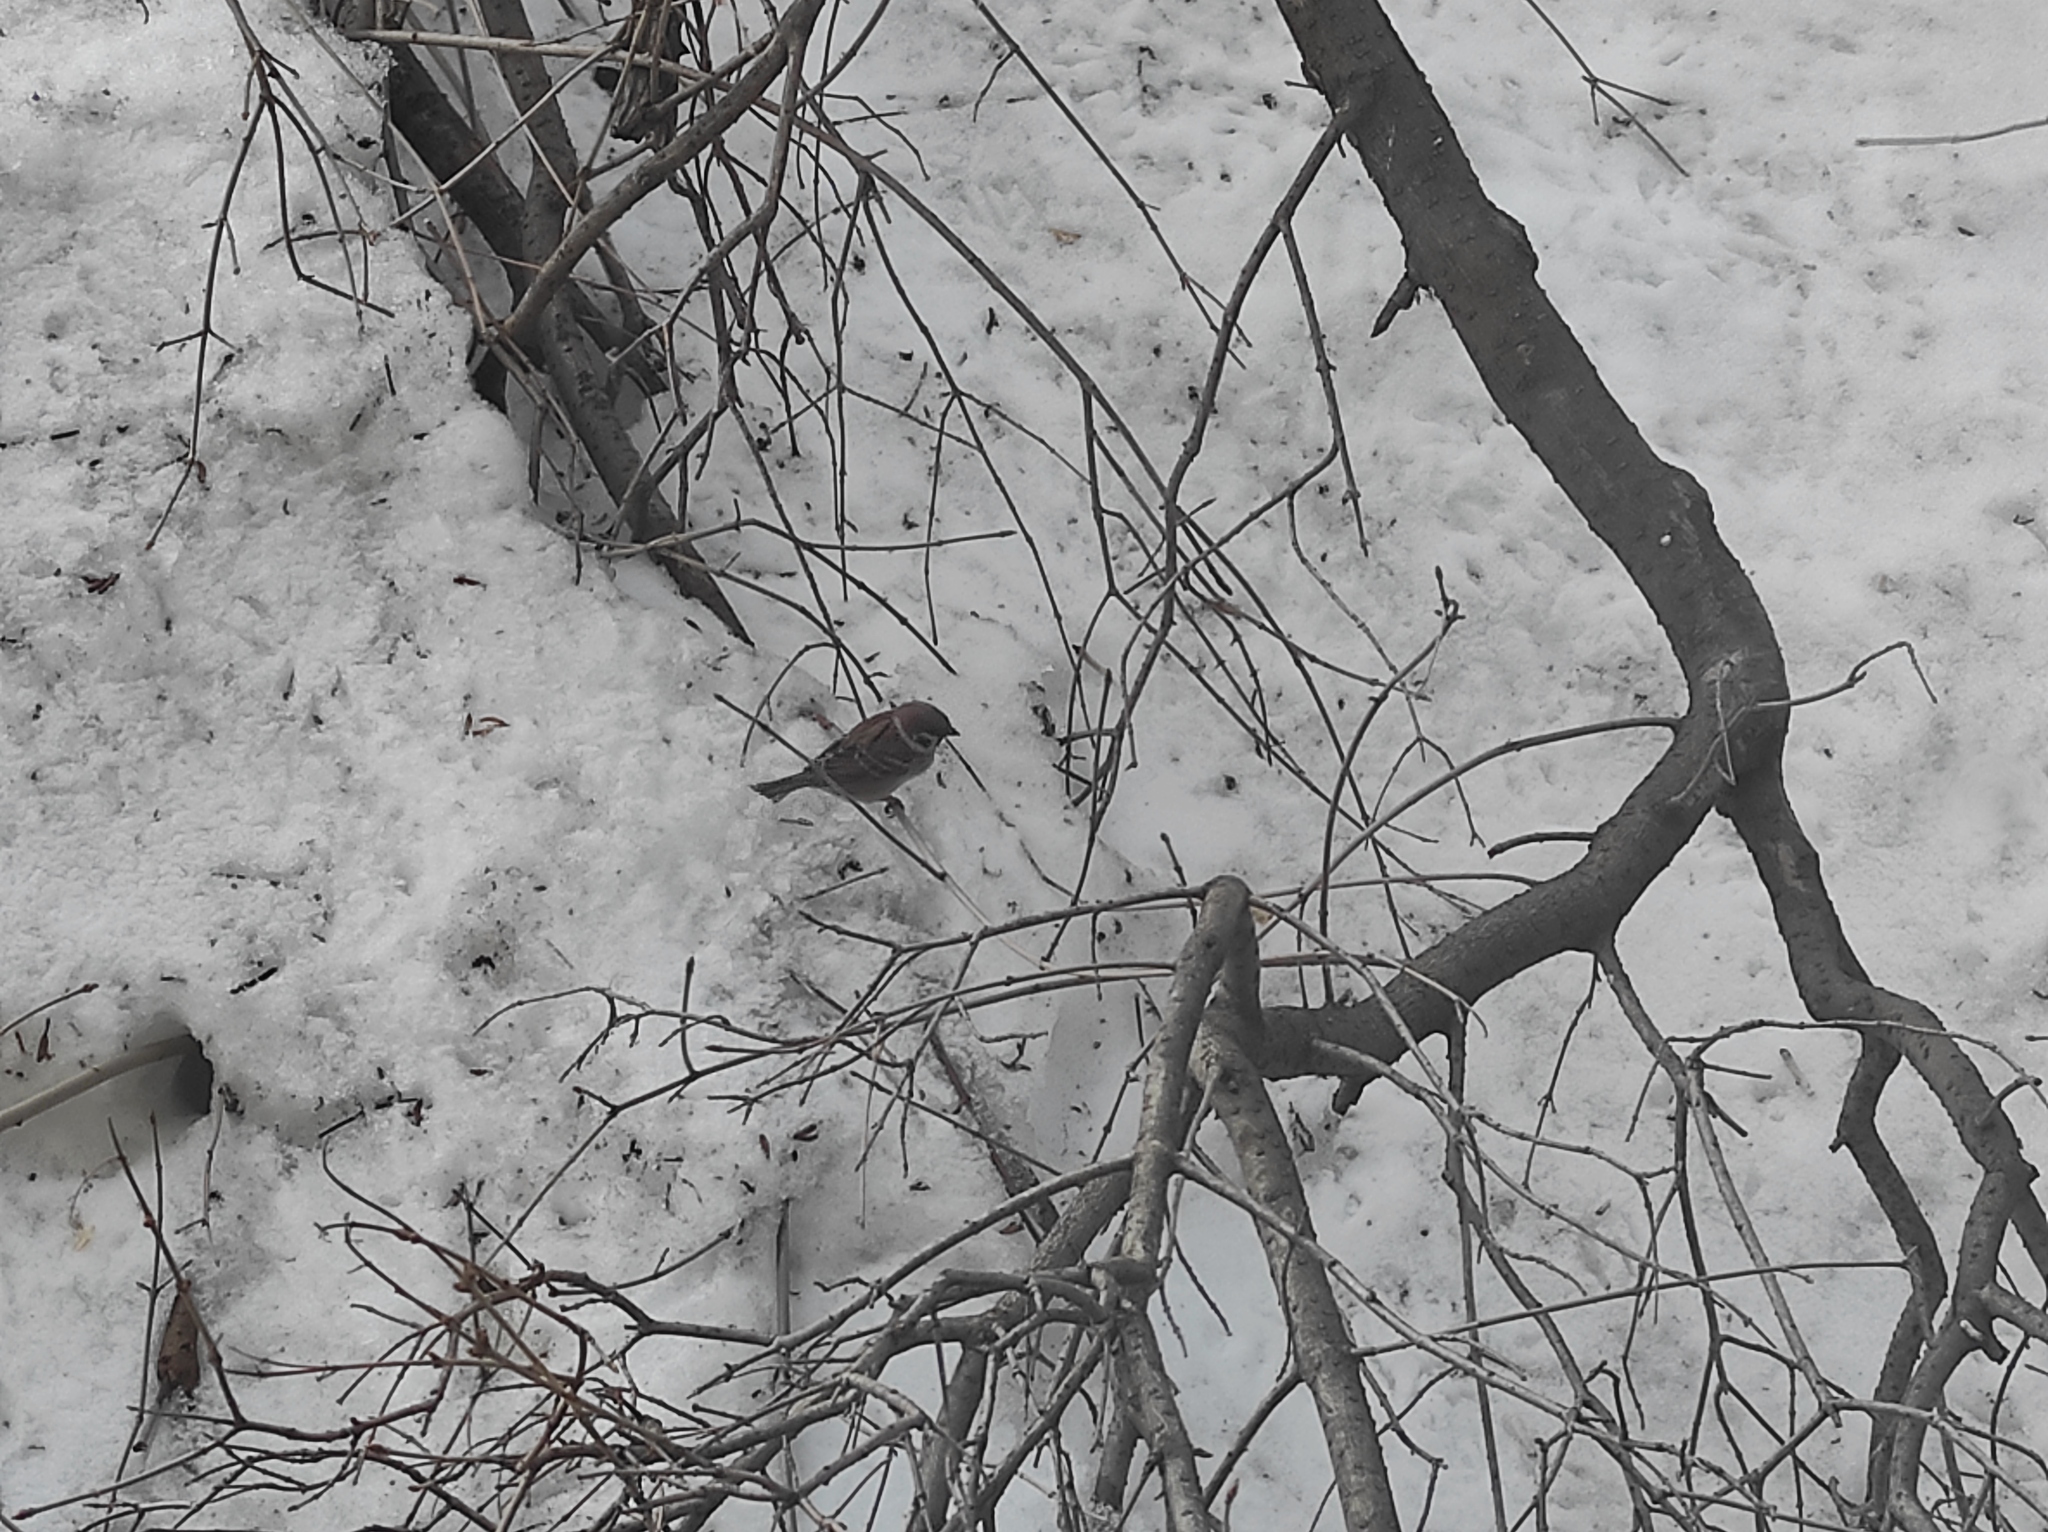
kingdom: Animalia
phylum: Chordata
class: Aves
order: Passeriformes
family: Passeridae
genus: Passer
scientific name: Passer montanus
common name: Eurasian tree sparrow
